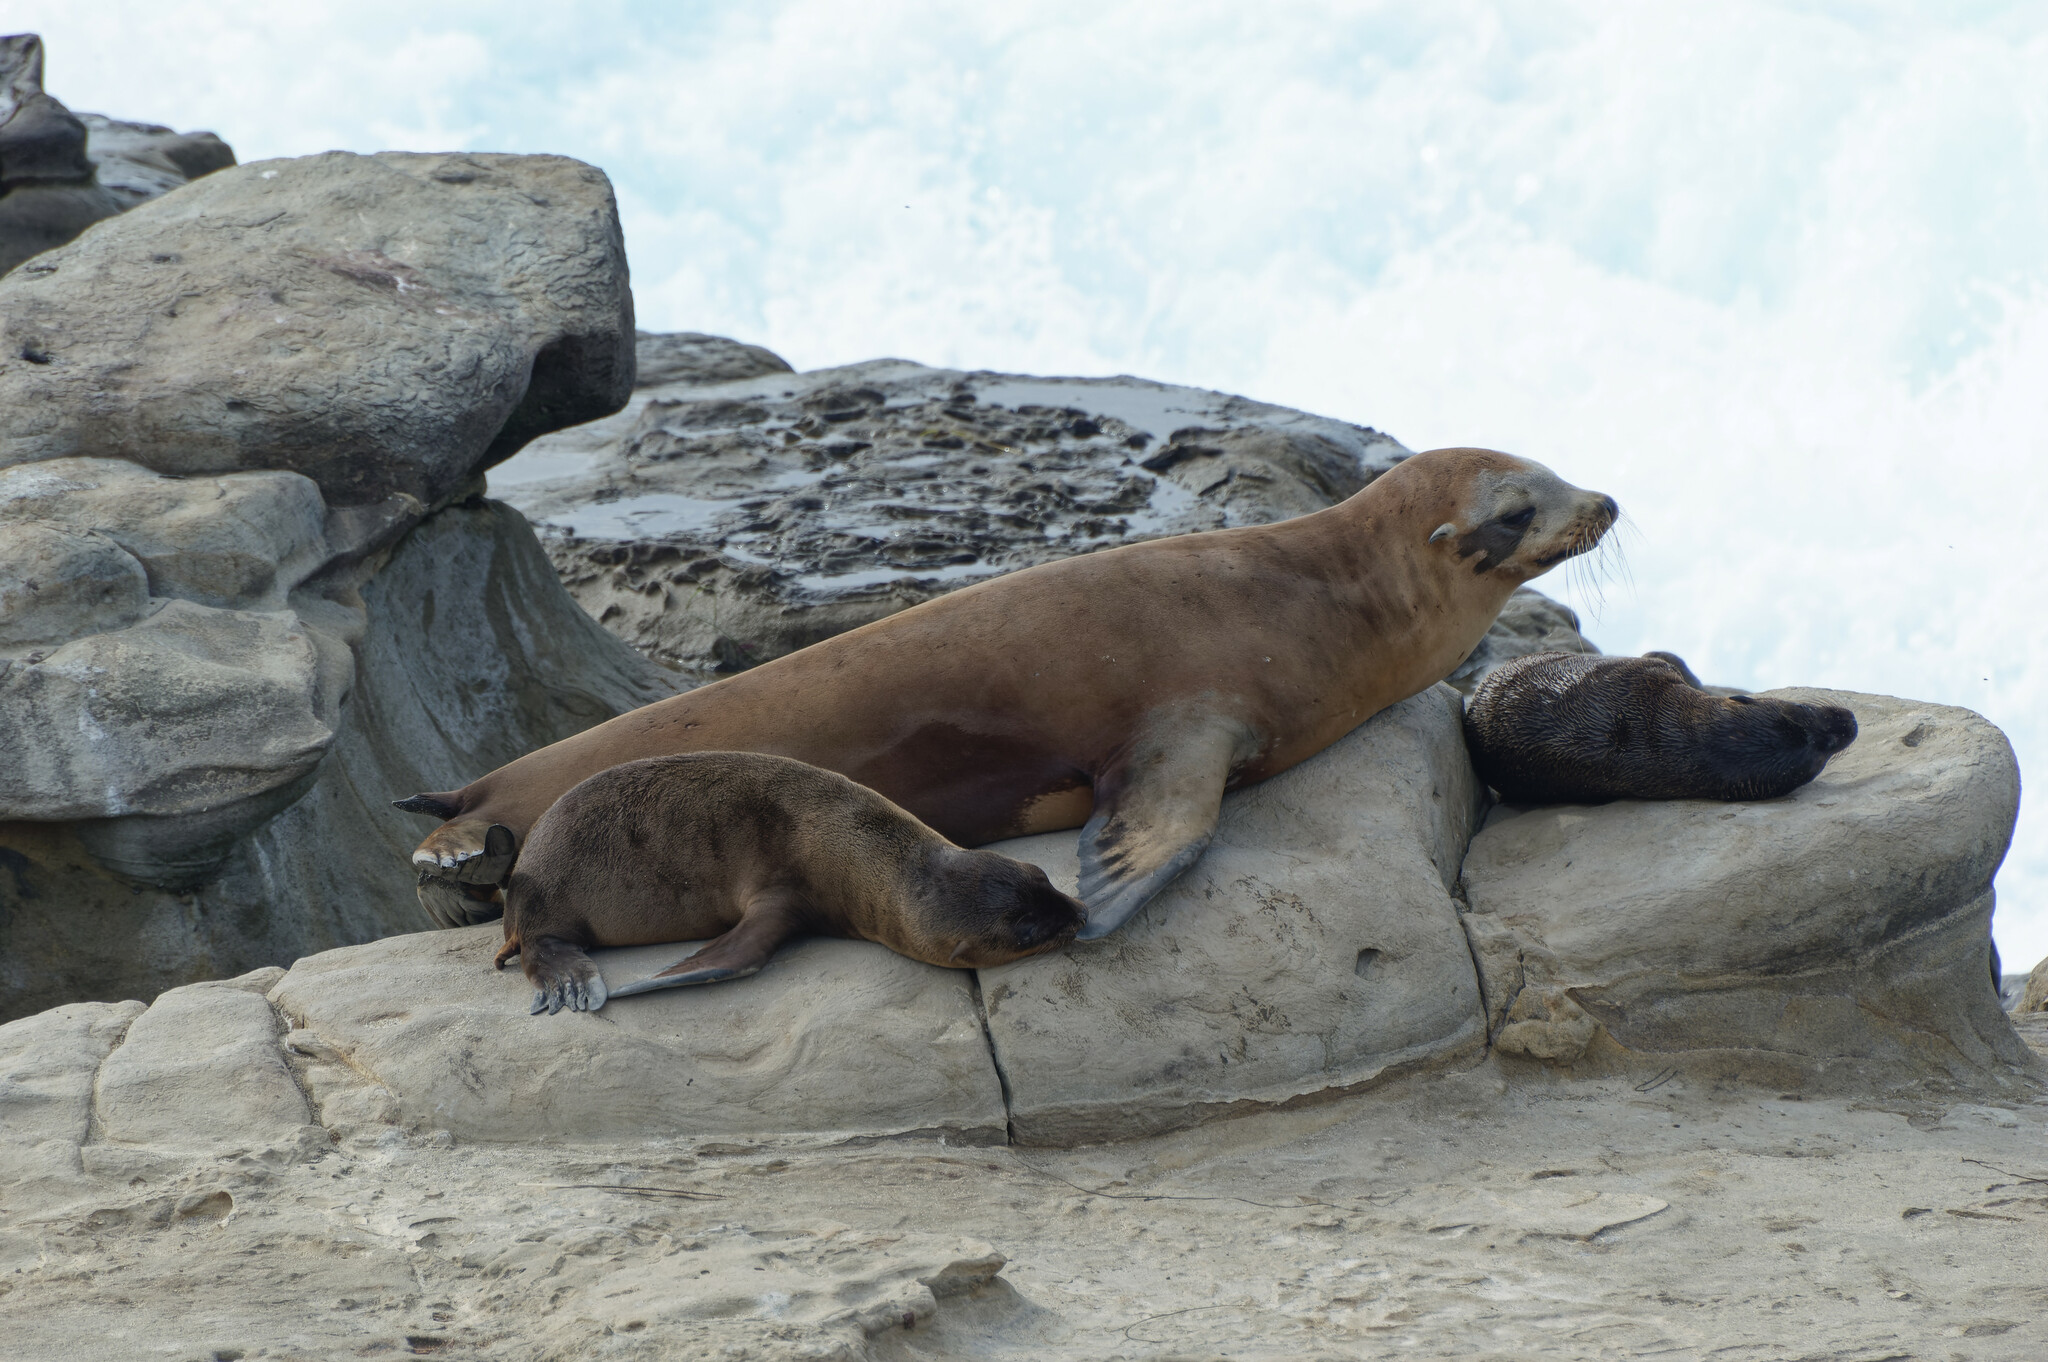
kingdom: Animalia
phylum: Chordata
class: Mammalia
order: Carnivora
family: Otariidae
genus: Zalophus
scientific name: Zalophus californianus
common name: California sea lion
